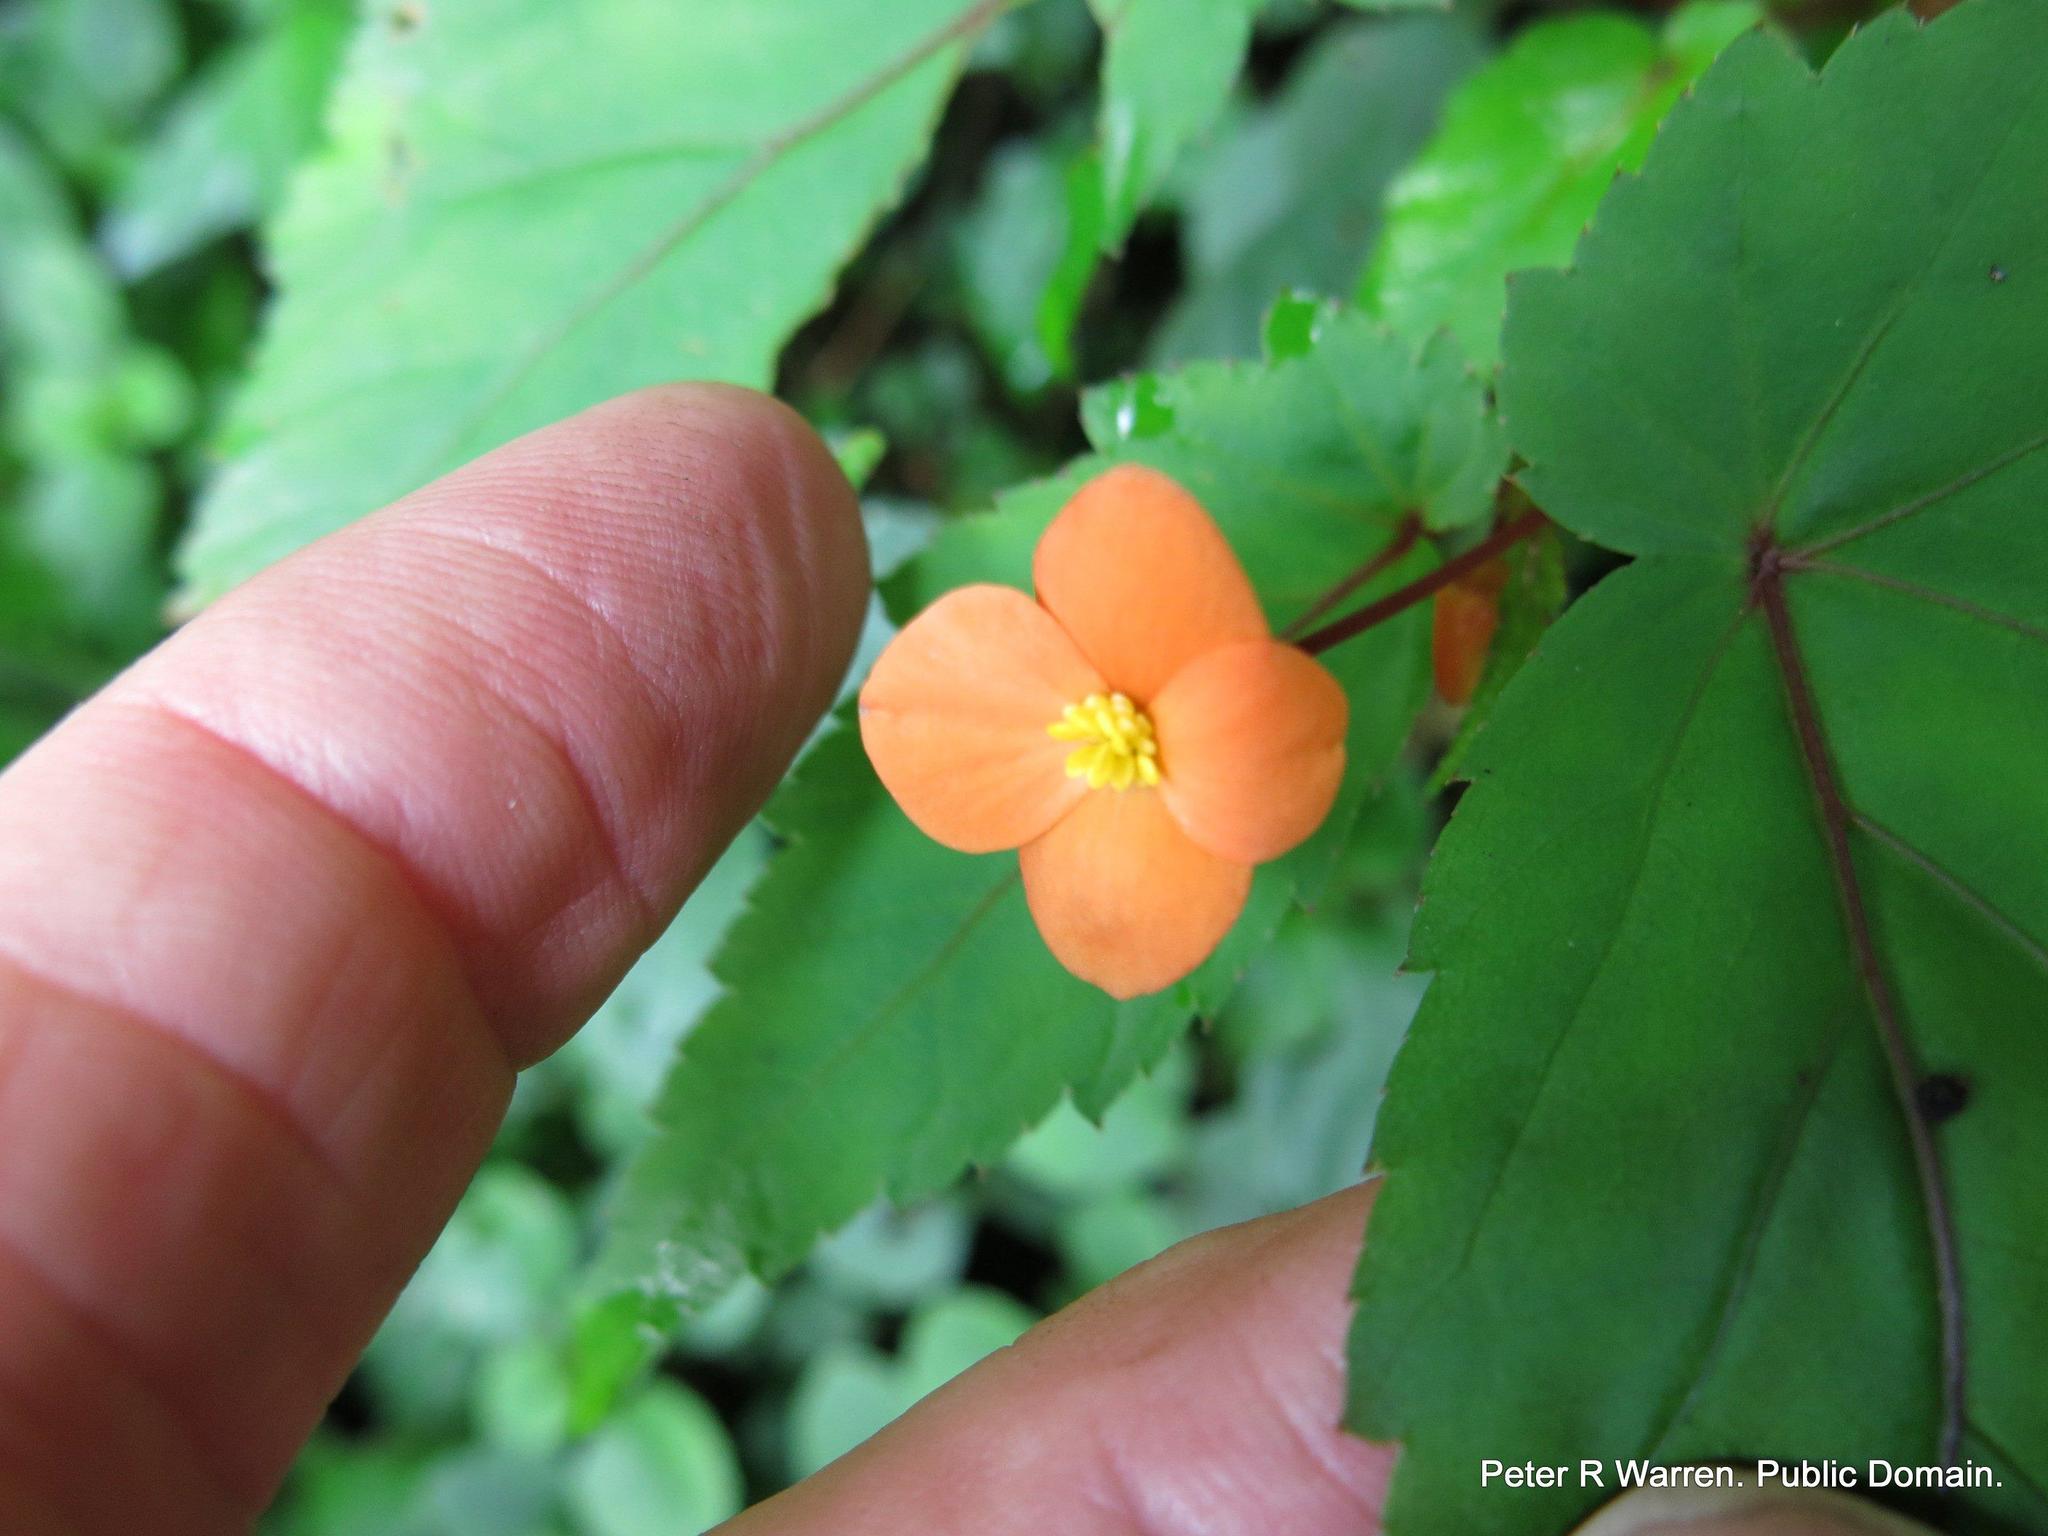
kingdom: Plantae
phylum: Tracheophyta
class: Magnoliopsida
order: Cucurbitales
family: Begoniaceae
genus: Begonia
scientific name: Begonia sutherlandii
